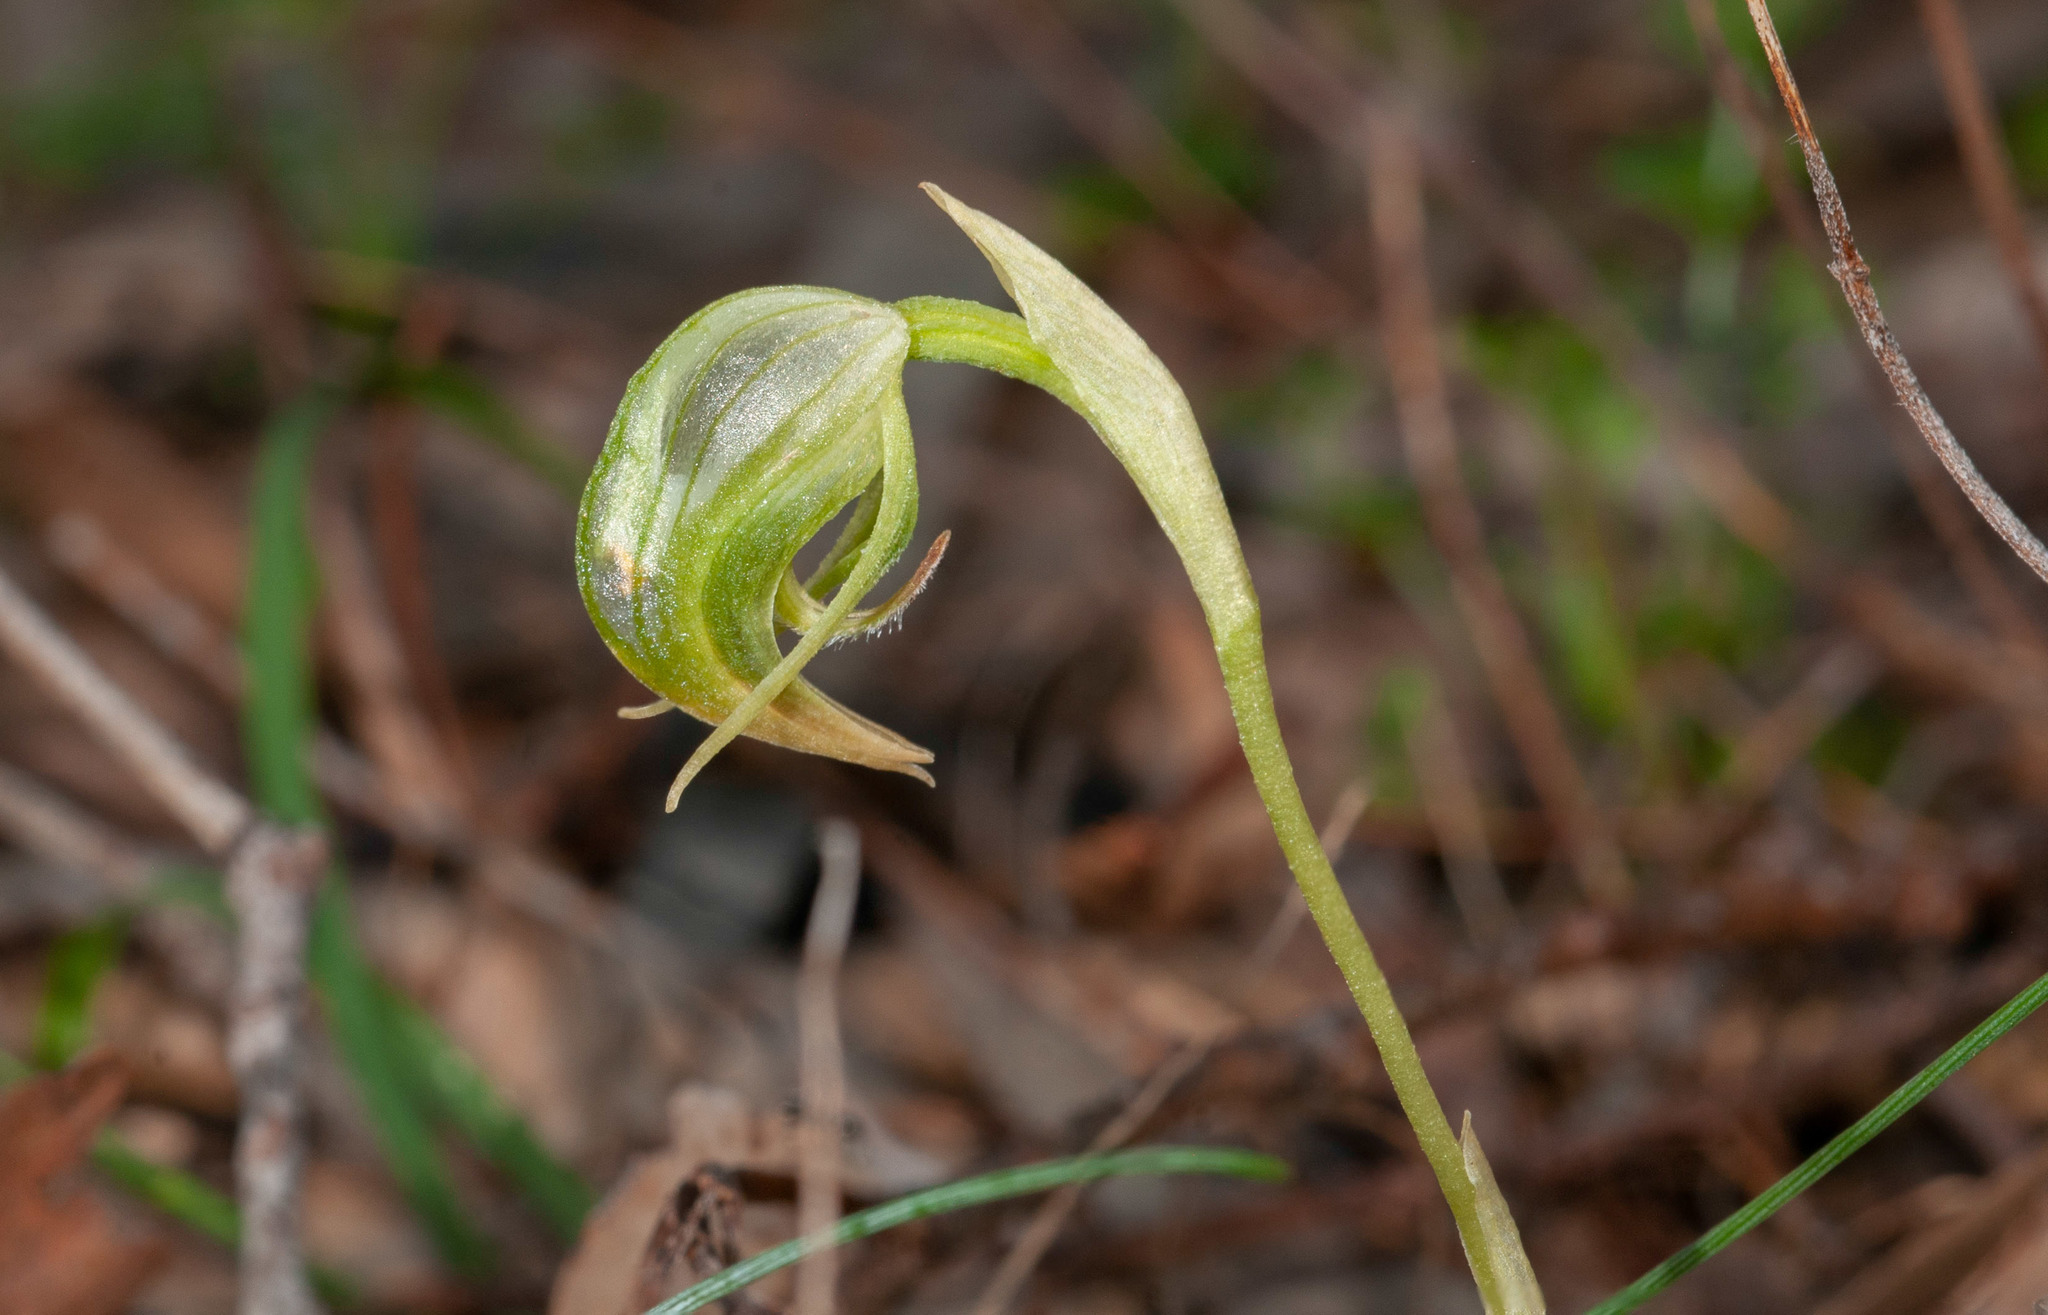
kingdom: Plantae
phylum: Tracheophyta
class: Liliopsida
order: Asparagales
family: Orchidaceae
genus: Pterostylis
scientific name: Pterostylis nutans
